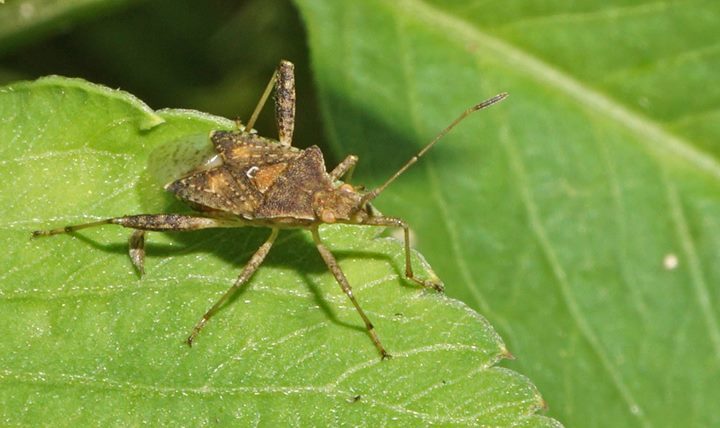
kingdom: Animalia
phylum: Arthropoda
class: Insecta
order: Hemiptera
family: Rhopalidae
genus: Harmostes
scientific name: Harmostes serratus
